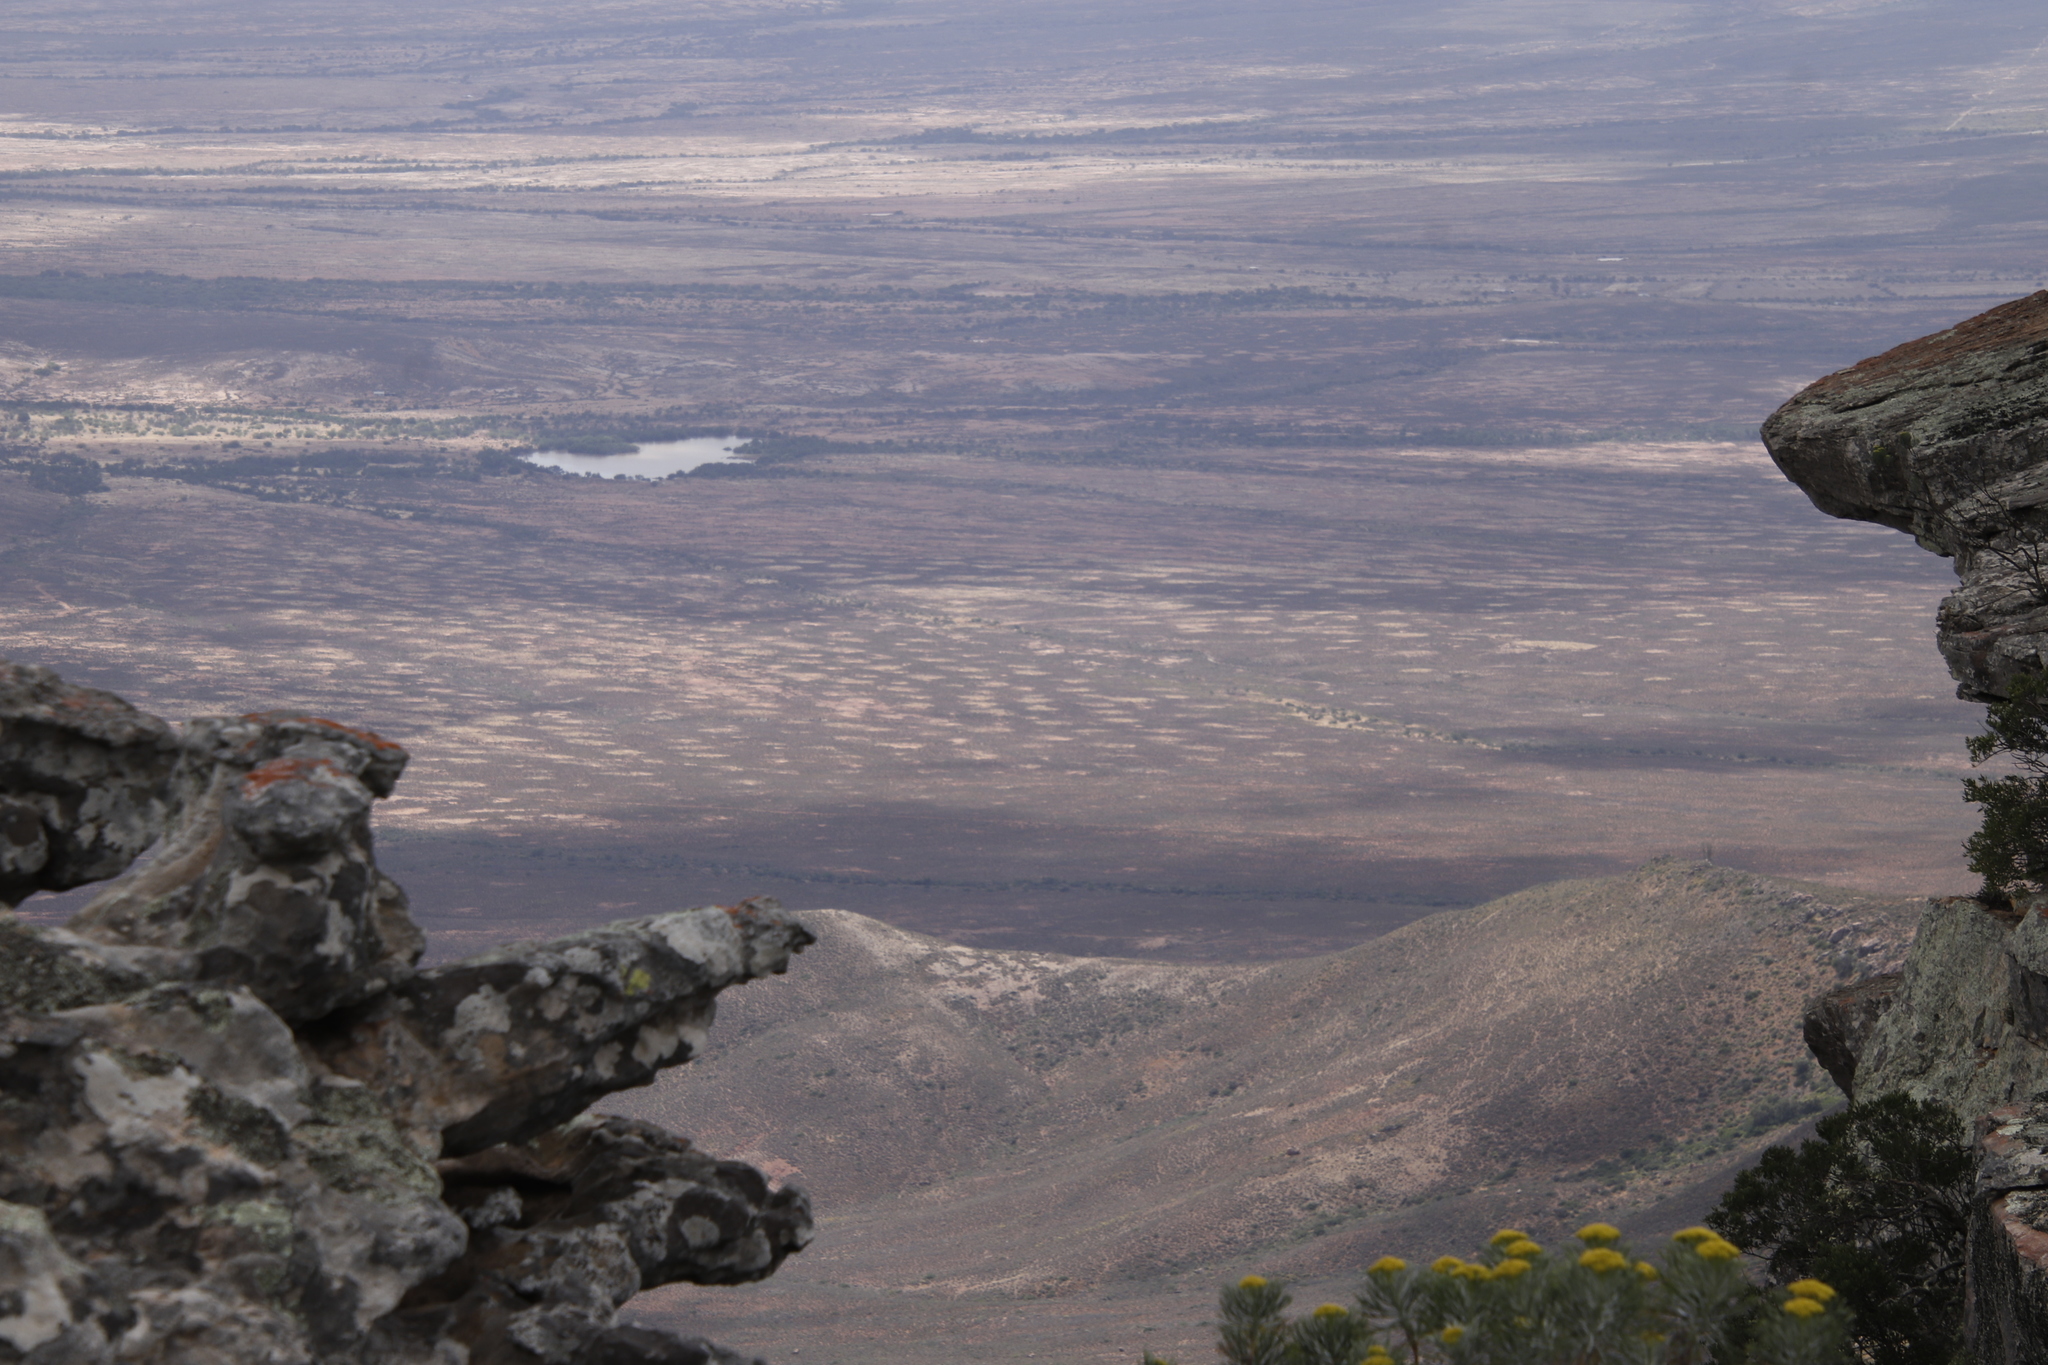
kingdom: Animalia
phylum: Arthropoda
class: Insecta
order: Blattodea
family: Hodotermitidae
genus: Microhodotermes
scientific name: Microhodotermes viator
